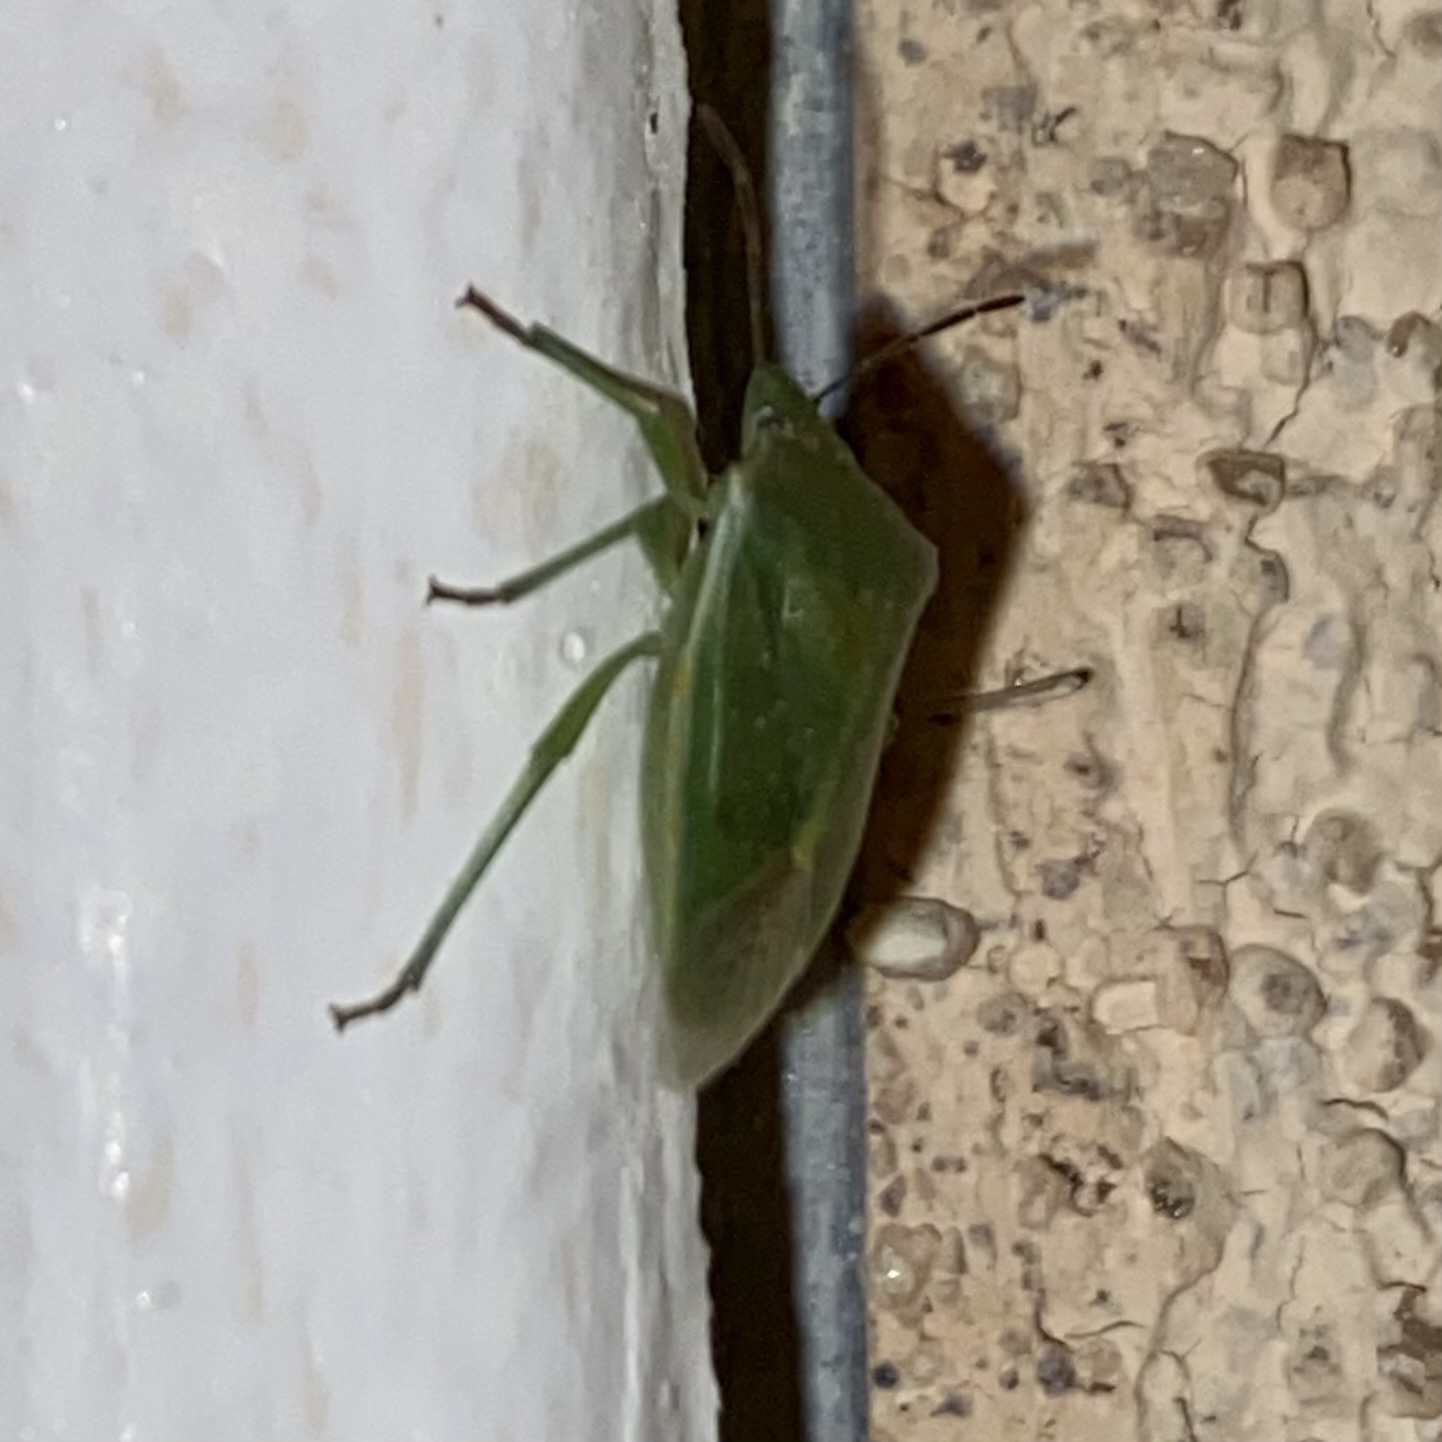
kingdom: Animalia
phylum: Arthropoda
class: Insecta
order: Hemiptera
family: Pentatomidae
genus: Thyanta
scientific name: Thyanta accerra
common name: Stink bug
